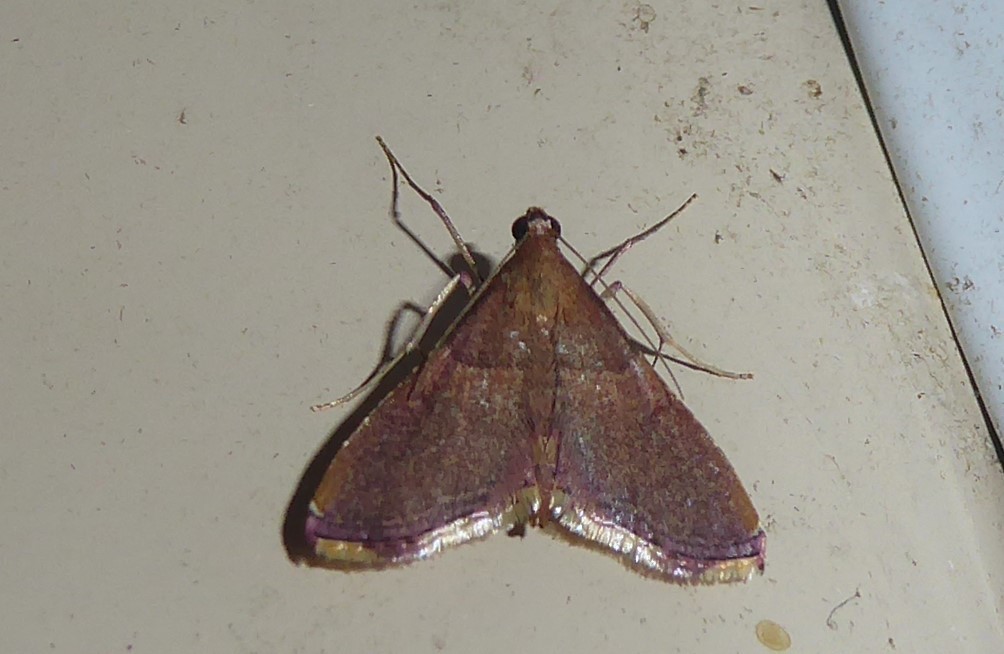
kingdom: Animalia
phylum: Arthropoda
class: Insecta
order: Lepidoptera
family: Pyralidae
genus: Endotricha
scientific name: Endotricha mesenterialis
